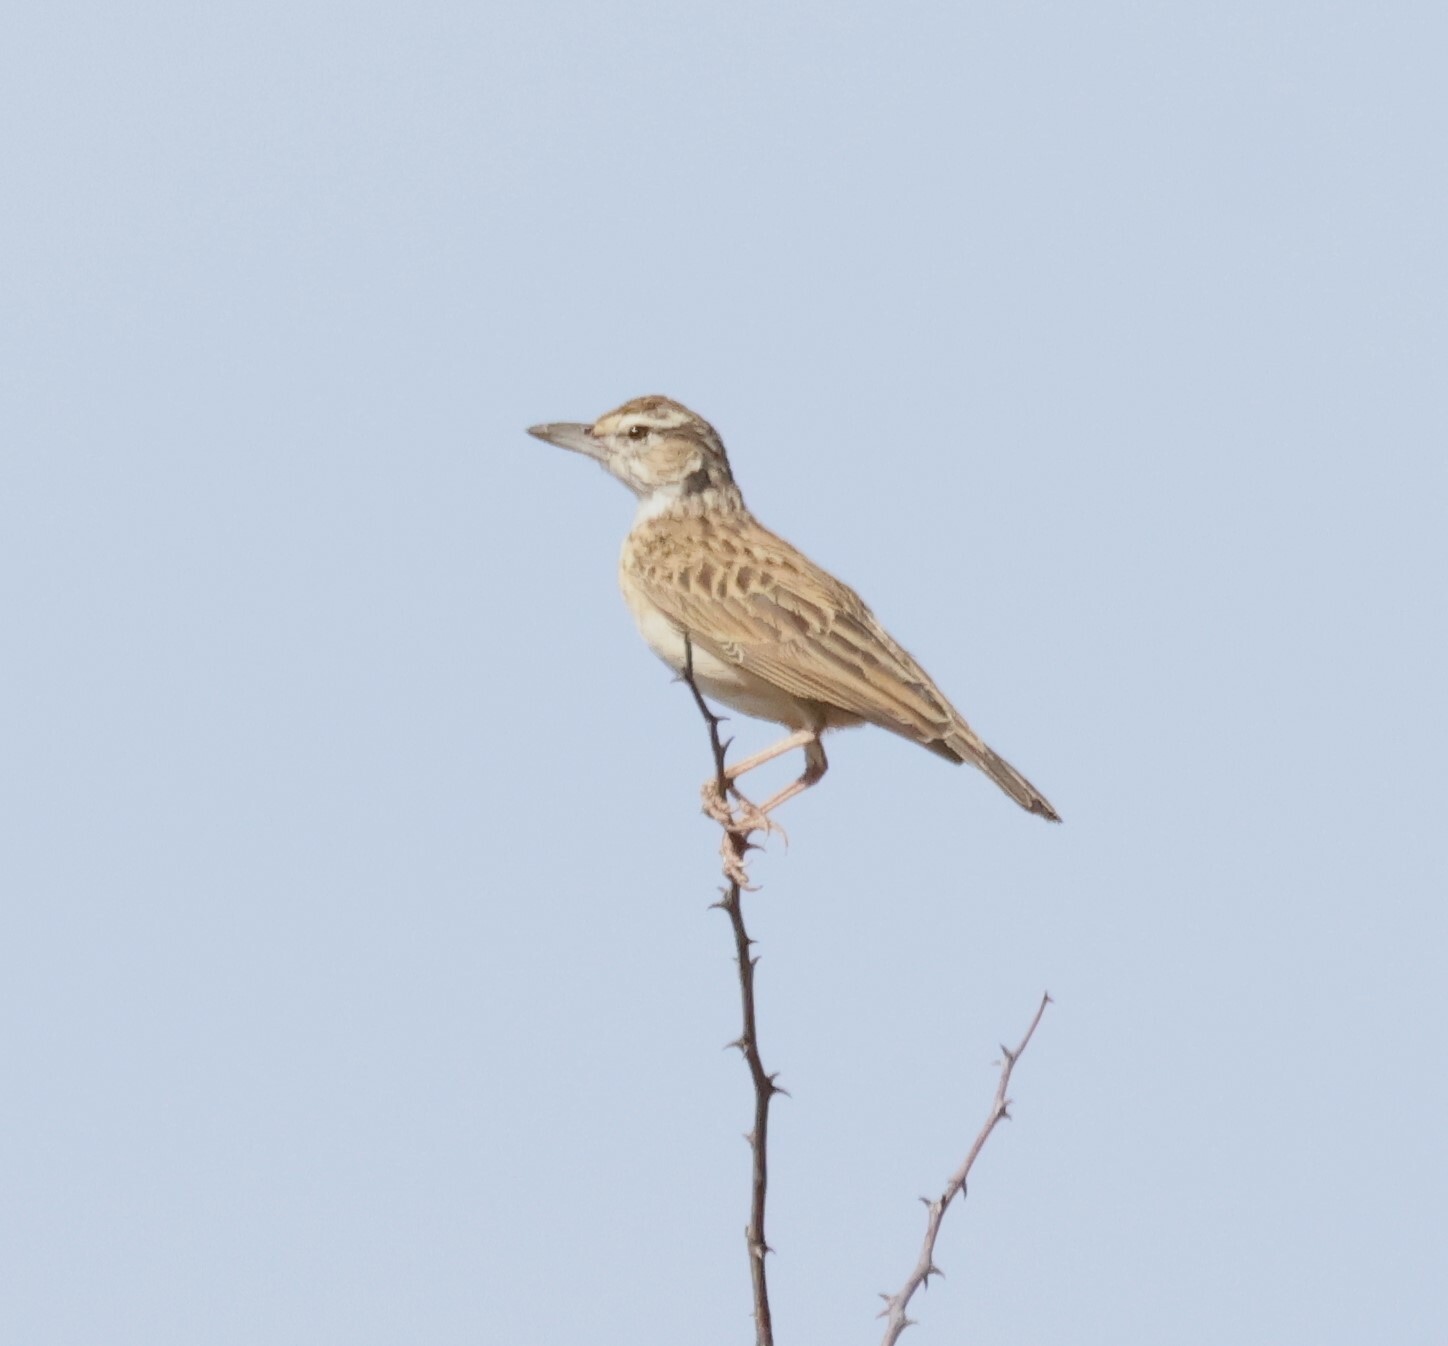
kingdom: Animalia
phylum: Chordata
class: Aves
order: Passeriformes
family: Alaudidae
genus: Calendulauda
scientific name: Calendulauda sabota
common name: Sabota lark
